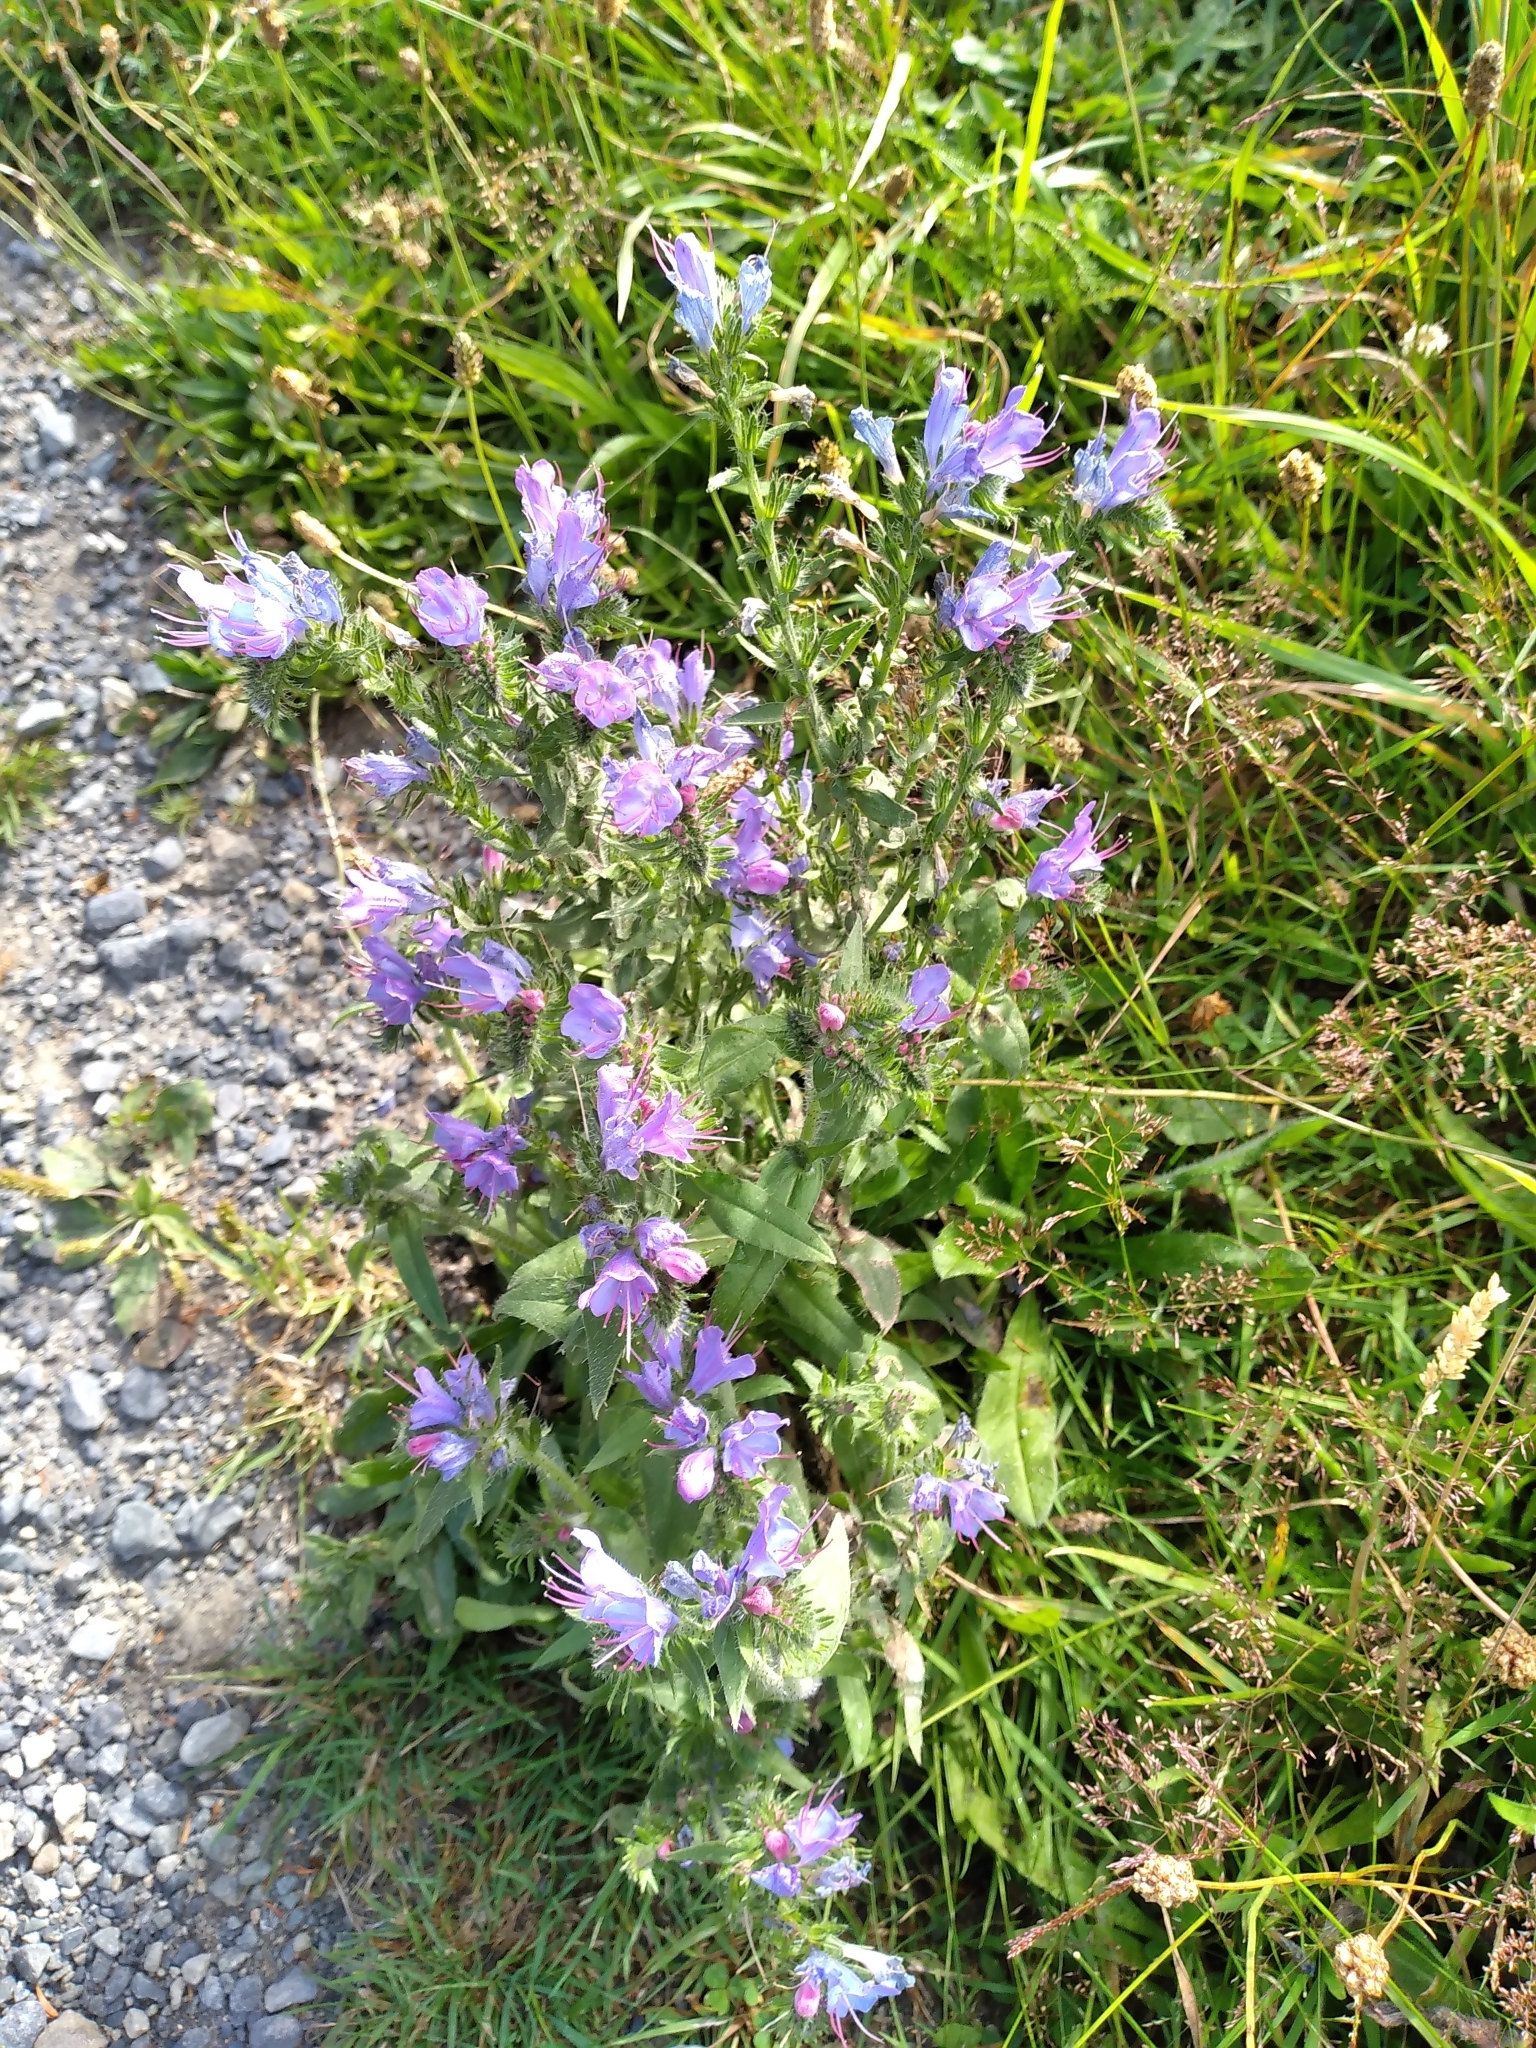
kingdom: Plantae
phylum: Tracheophyta
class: Magnoliopsida
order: Boraginales
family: Boraginaceae
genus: Echium
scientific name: Echium vulgare
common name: Common viper's bugloss
